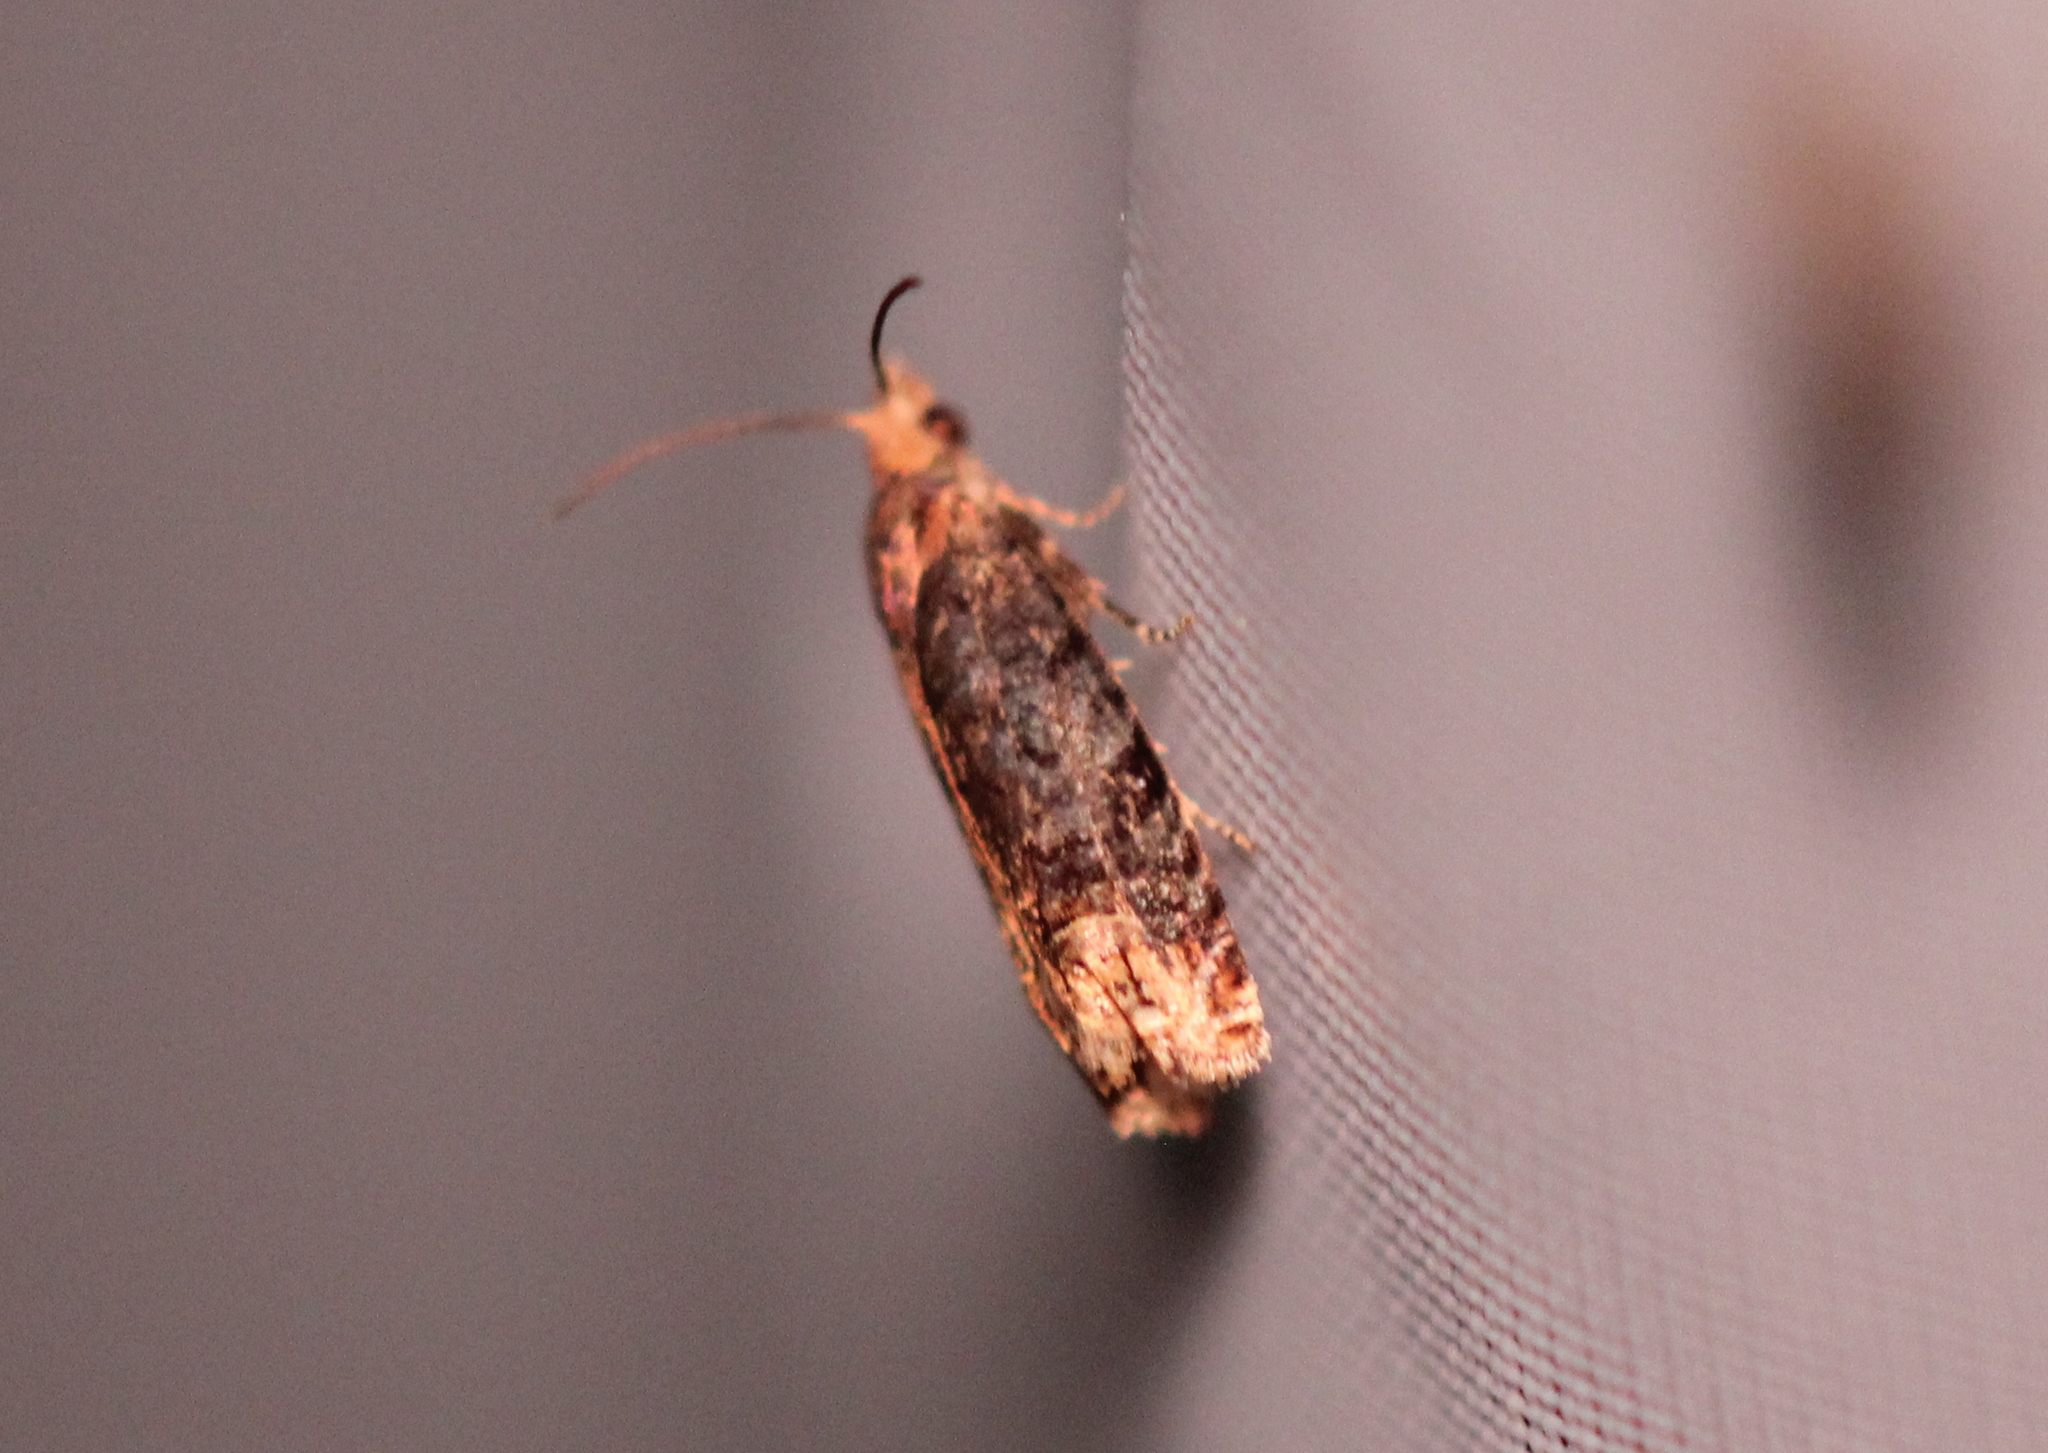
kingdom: Animalia
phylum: Arthropoda
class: Insecta
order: Lepidoptera
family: Tortricidae
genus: Eucosma
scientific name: Eucosma ochroterminana
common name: Buff-tipped eucosma moth
